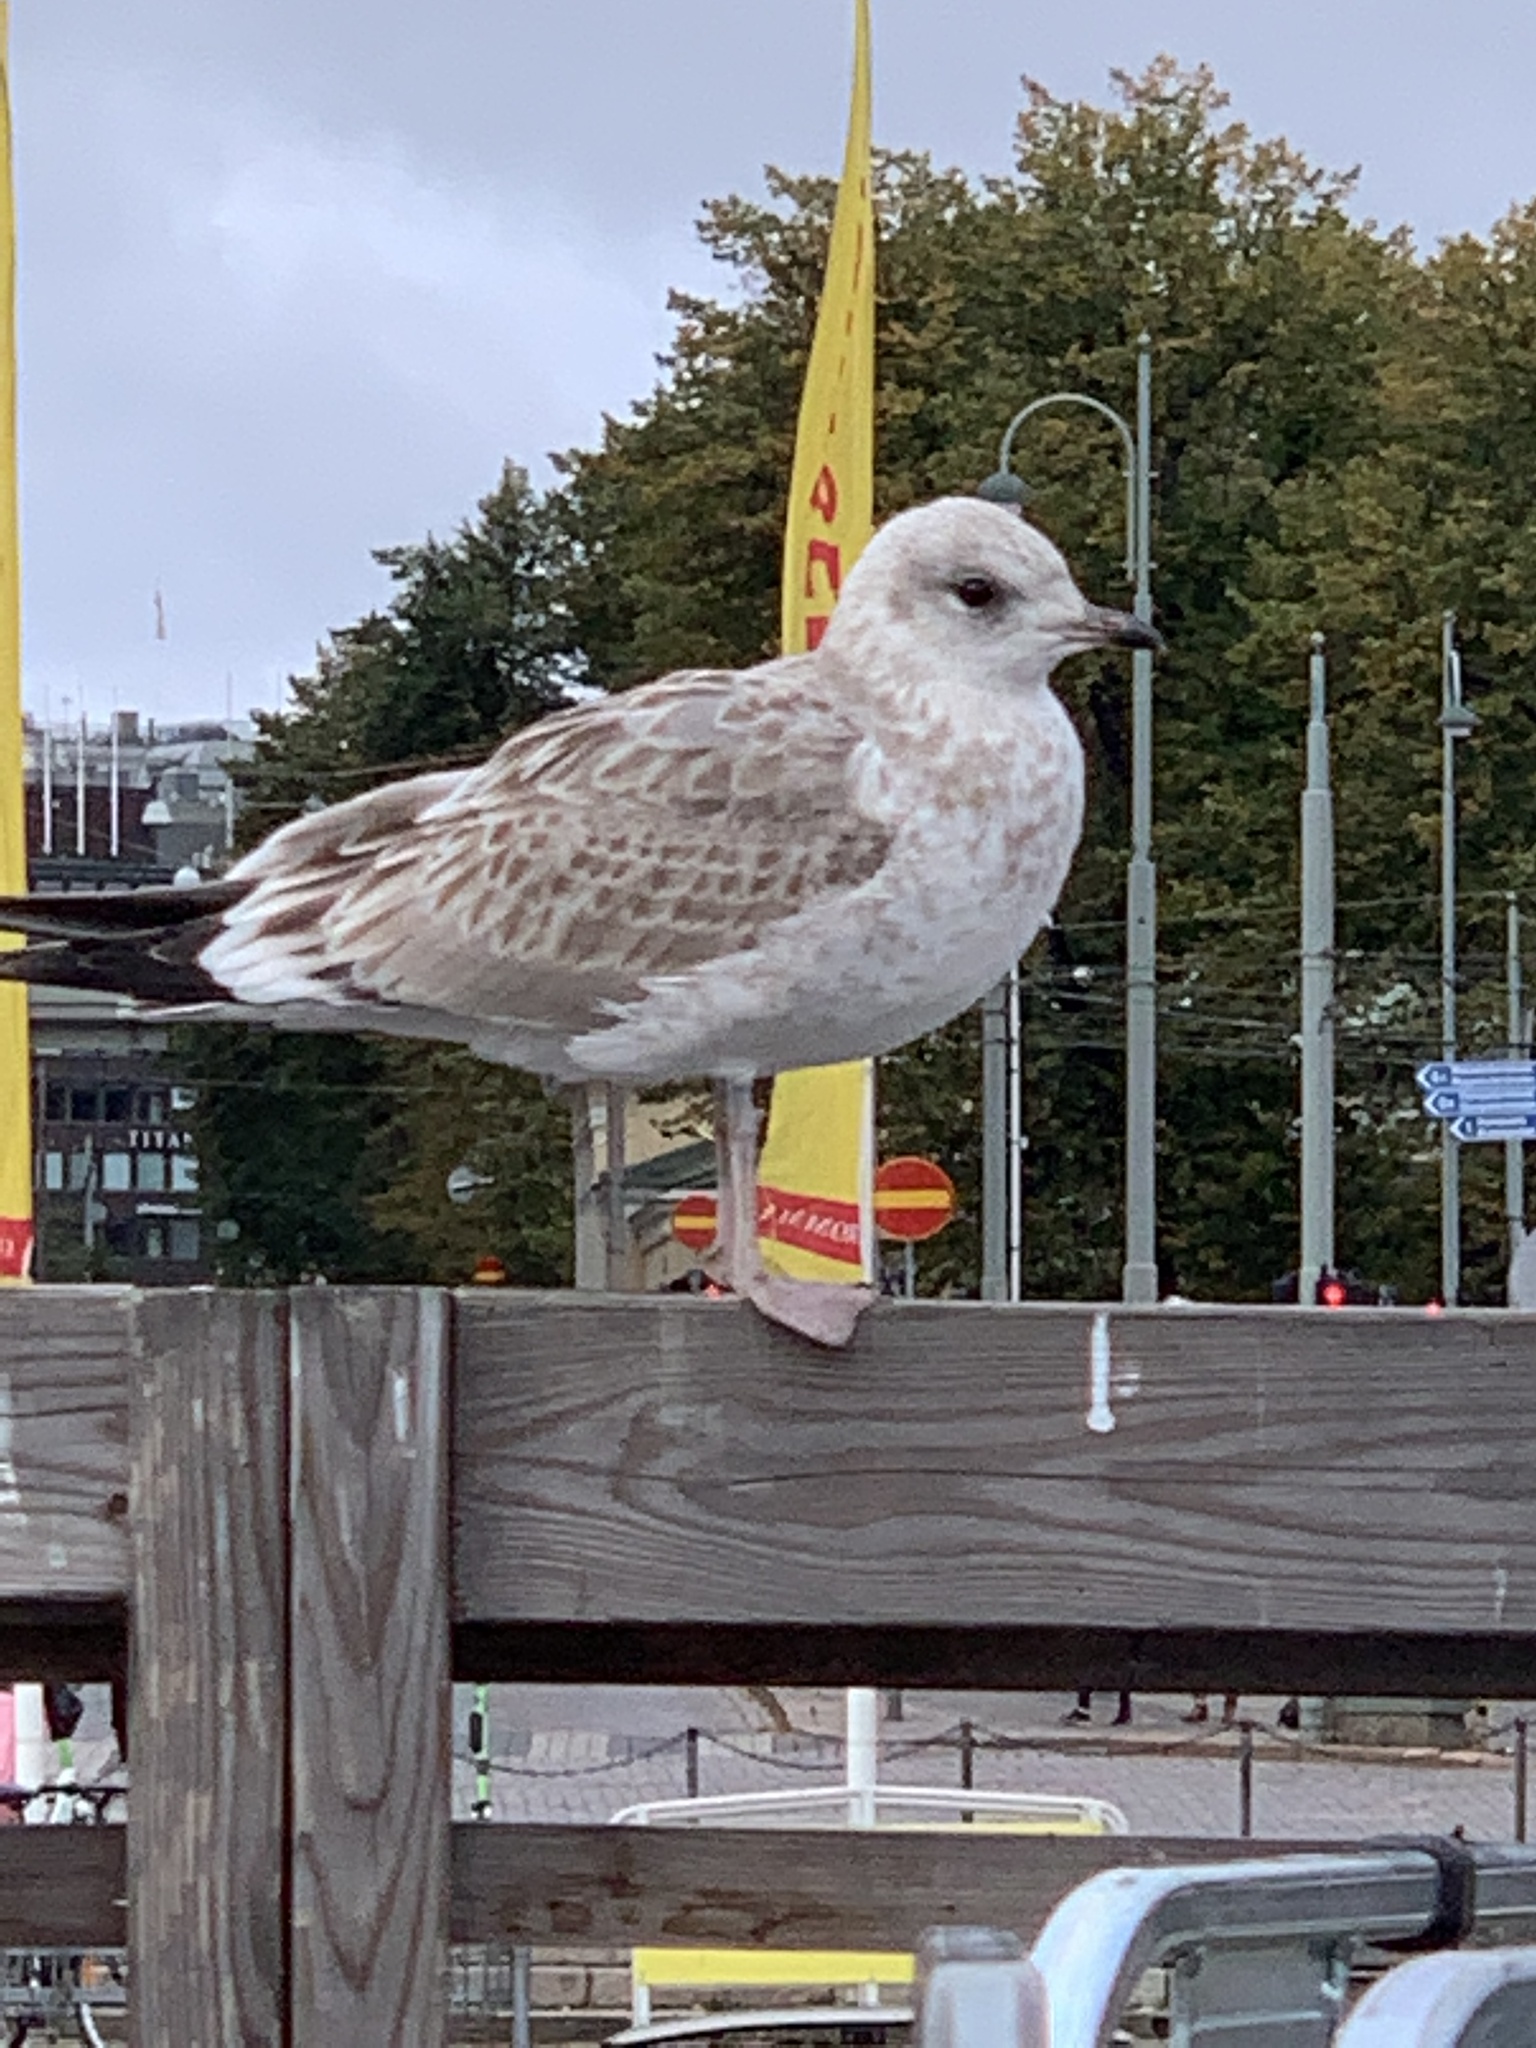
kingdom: Animalia
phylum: Chordata
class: Aves
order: Charadriiformes
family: Laridae
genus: Larus
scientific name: Larus canus
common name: Mew gull
